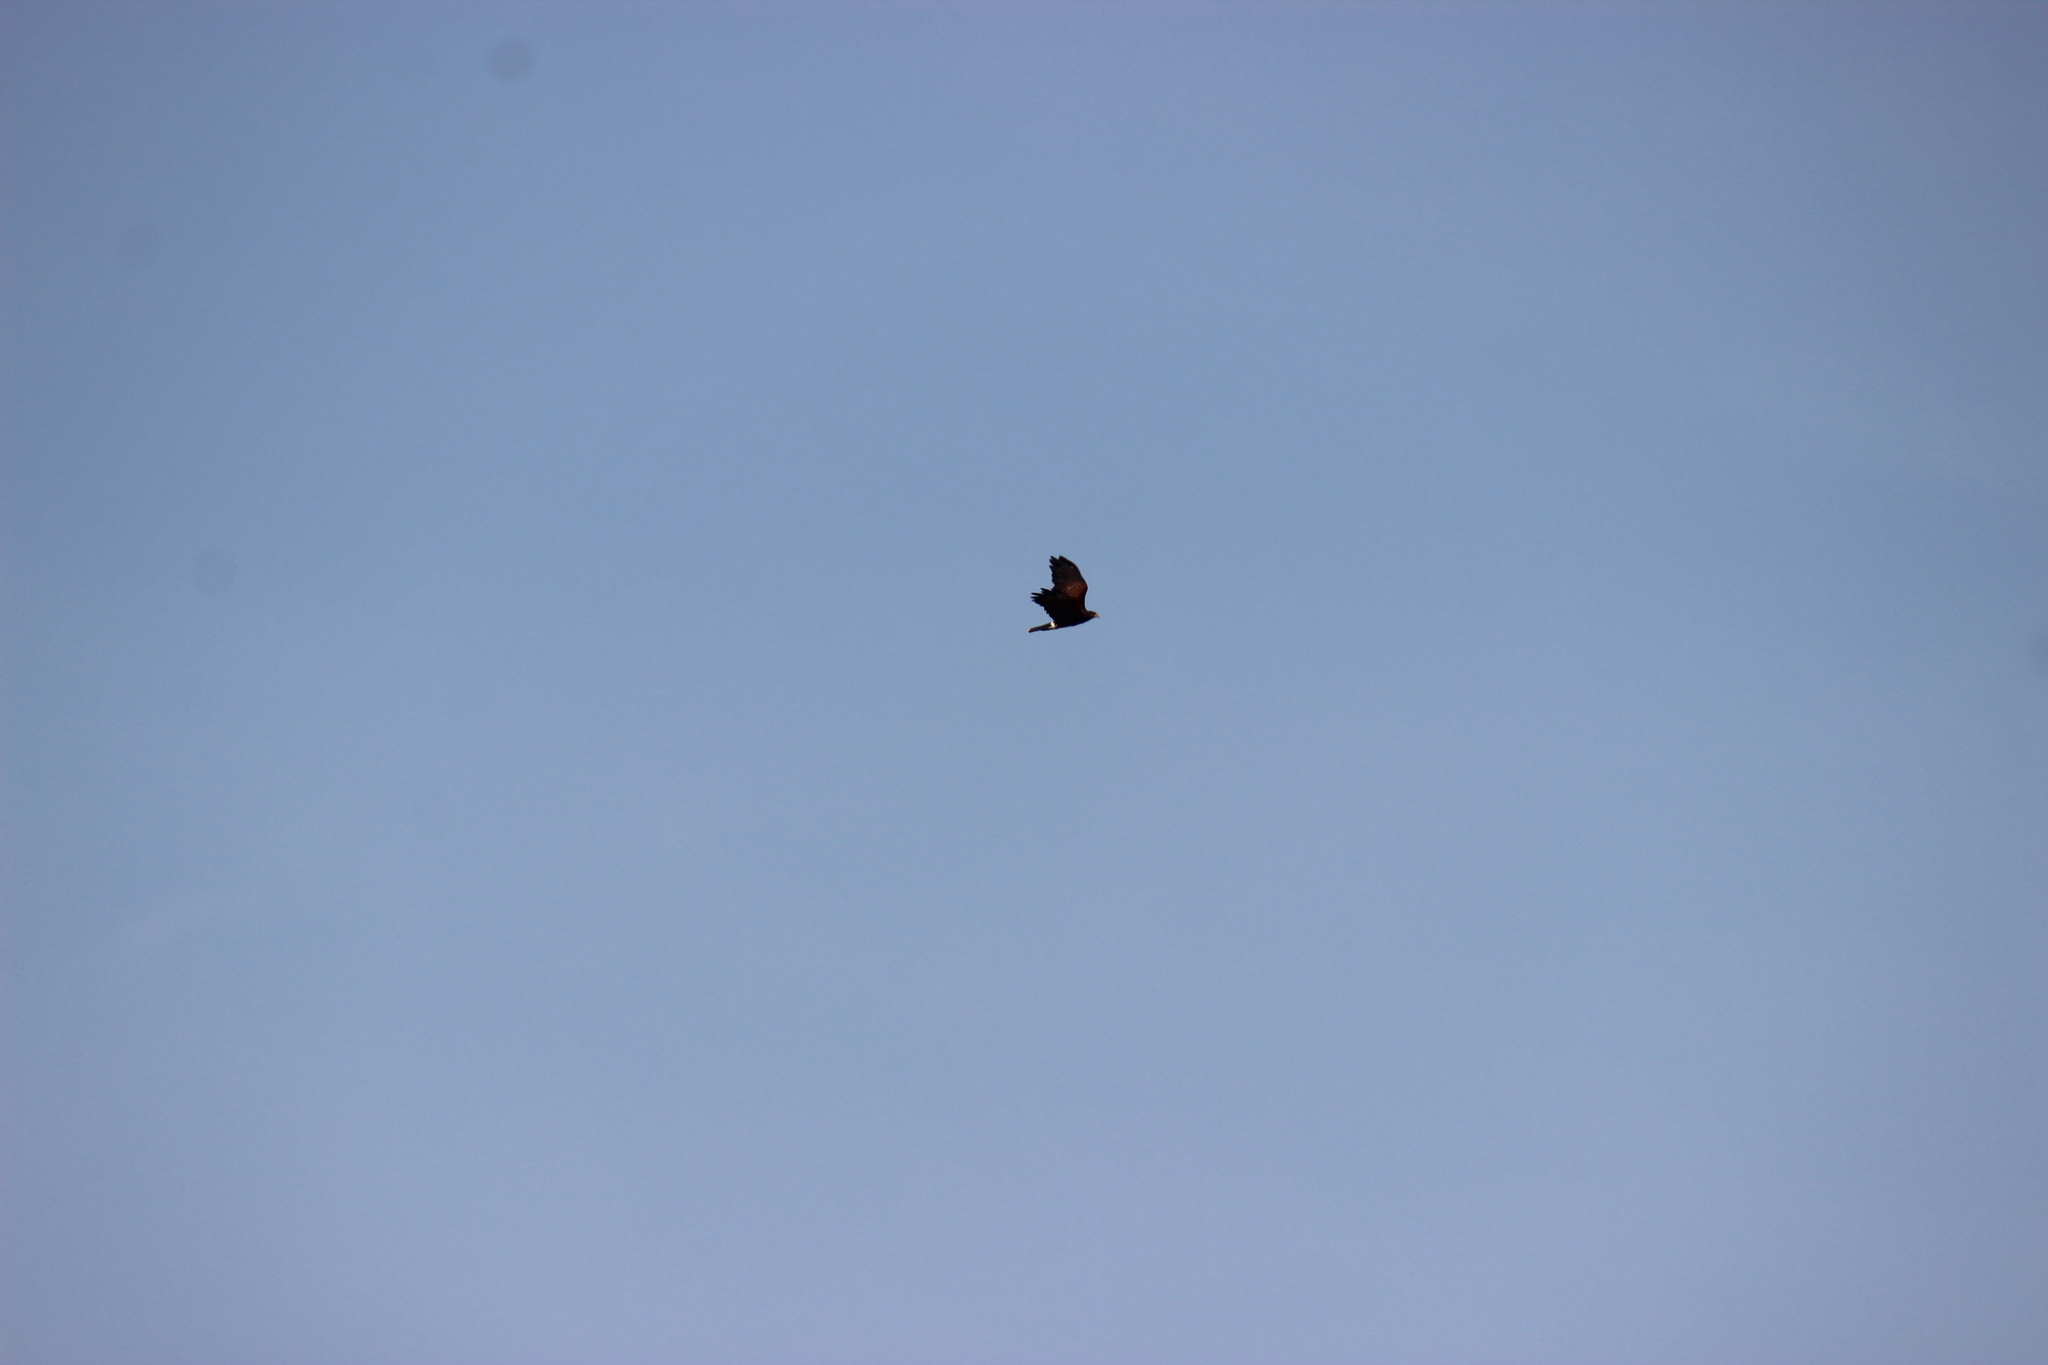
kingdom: Animalia
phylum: Chordata
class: Aves
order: Accipitriformes
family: Accipitridae
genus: Parabuteo
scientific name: Parabuteo unicinctus
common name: Harris's hawk
